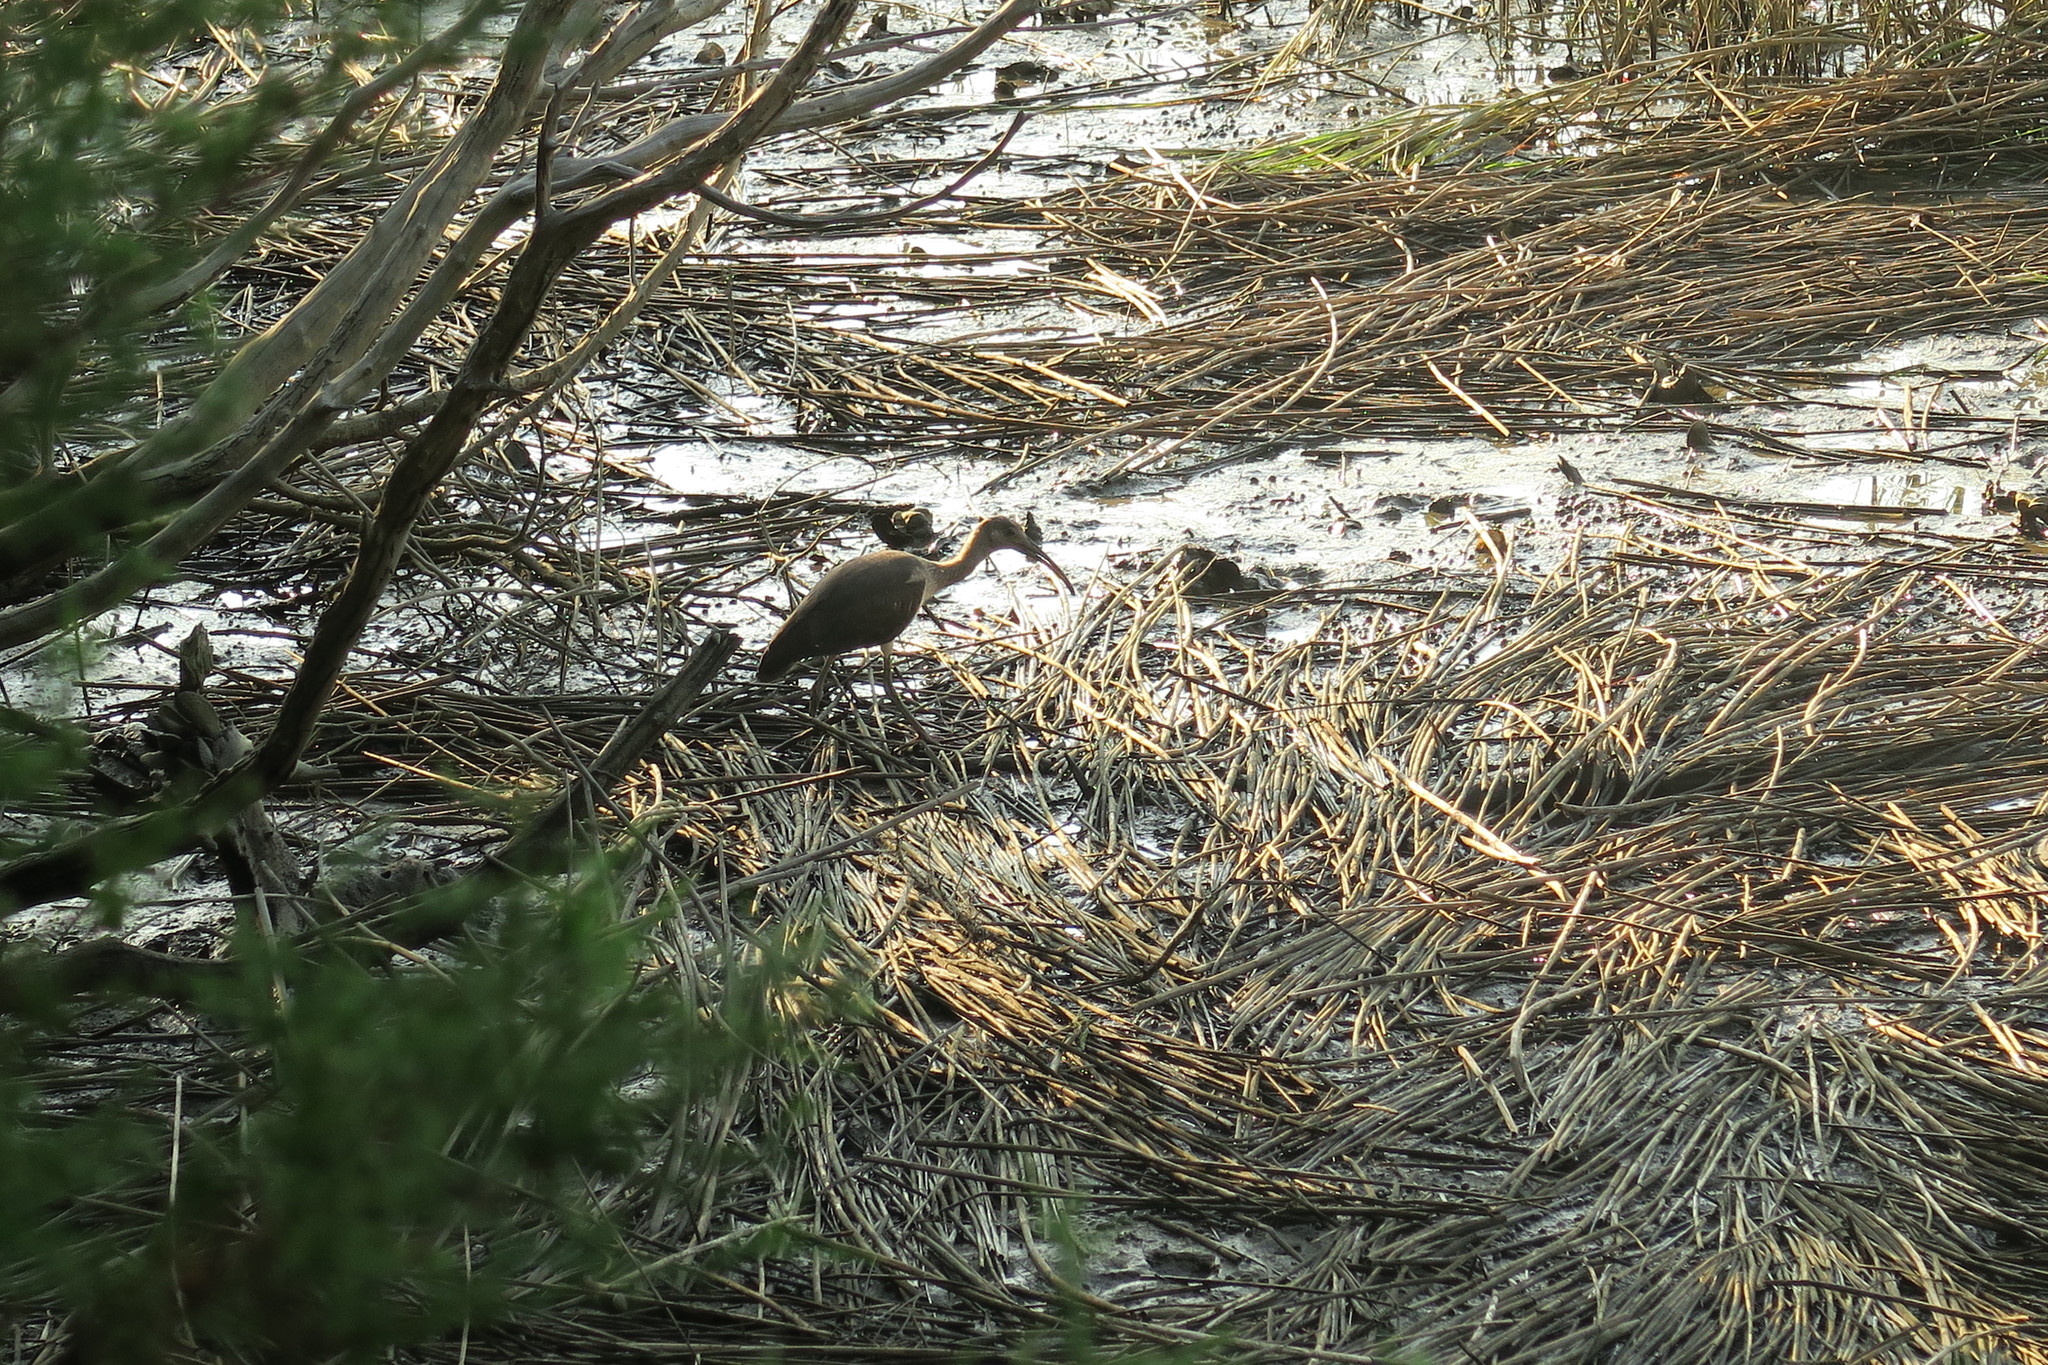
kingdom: Animalia
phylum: Chordata
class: Aves
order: Pelecaniformes
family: Threskiornithidae
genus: Eudocimus
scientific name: Eudocimus albus
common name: White ibis
